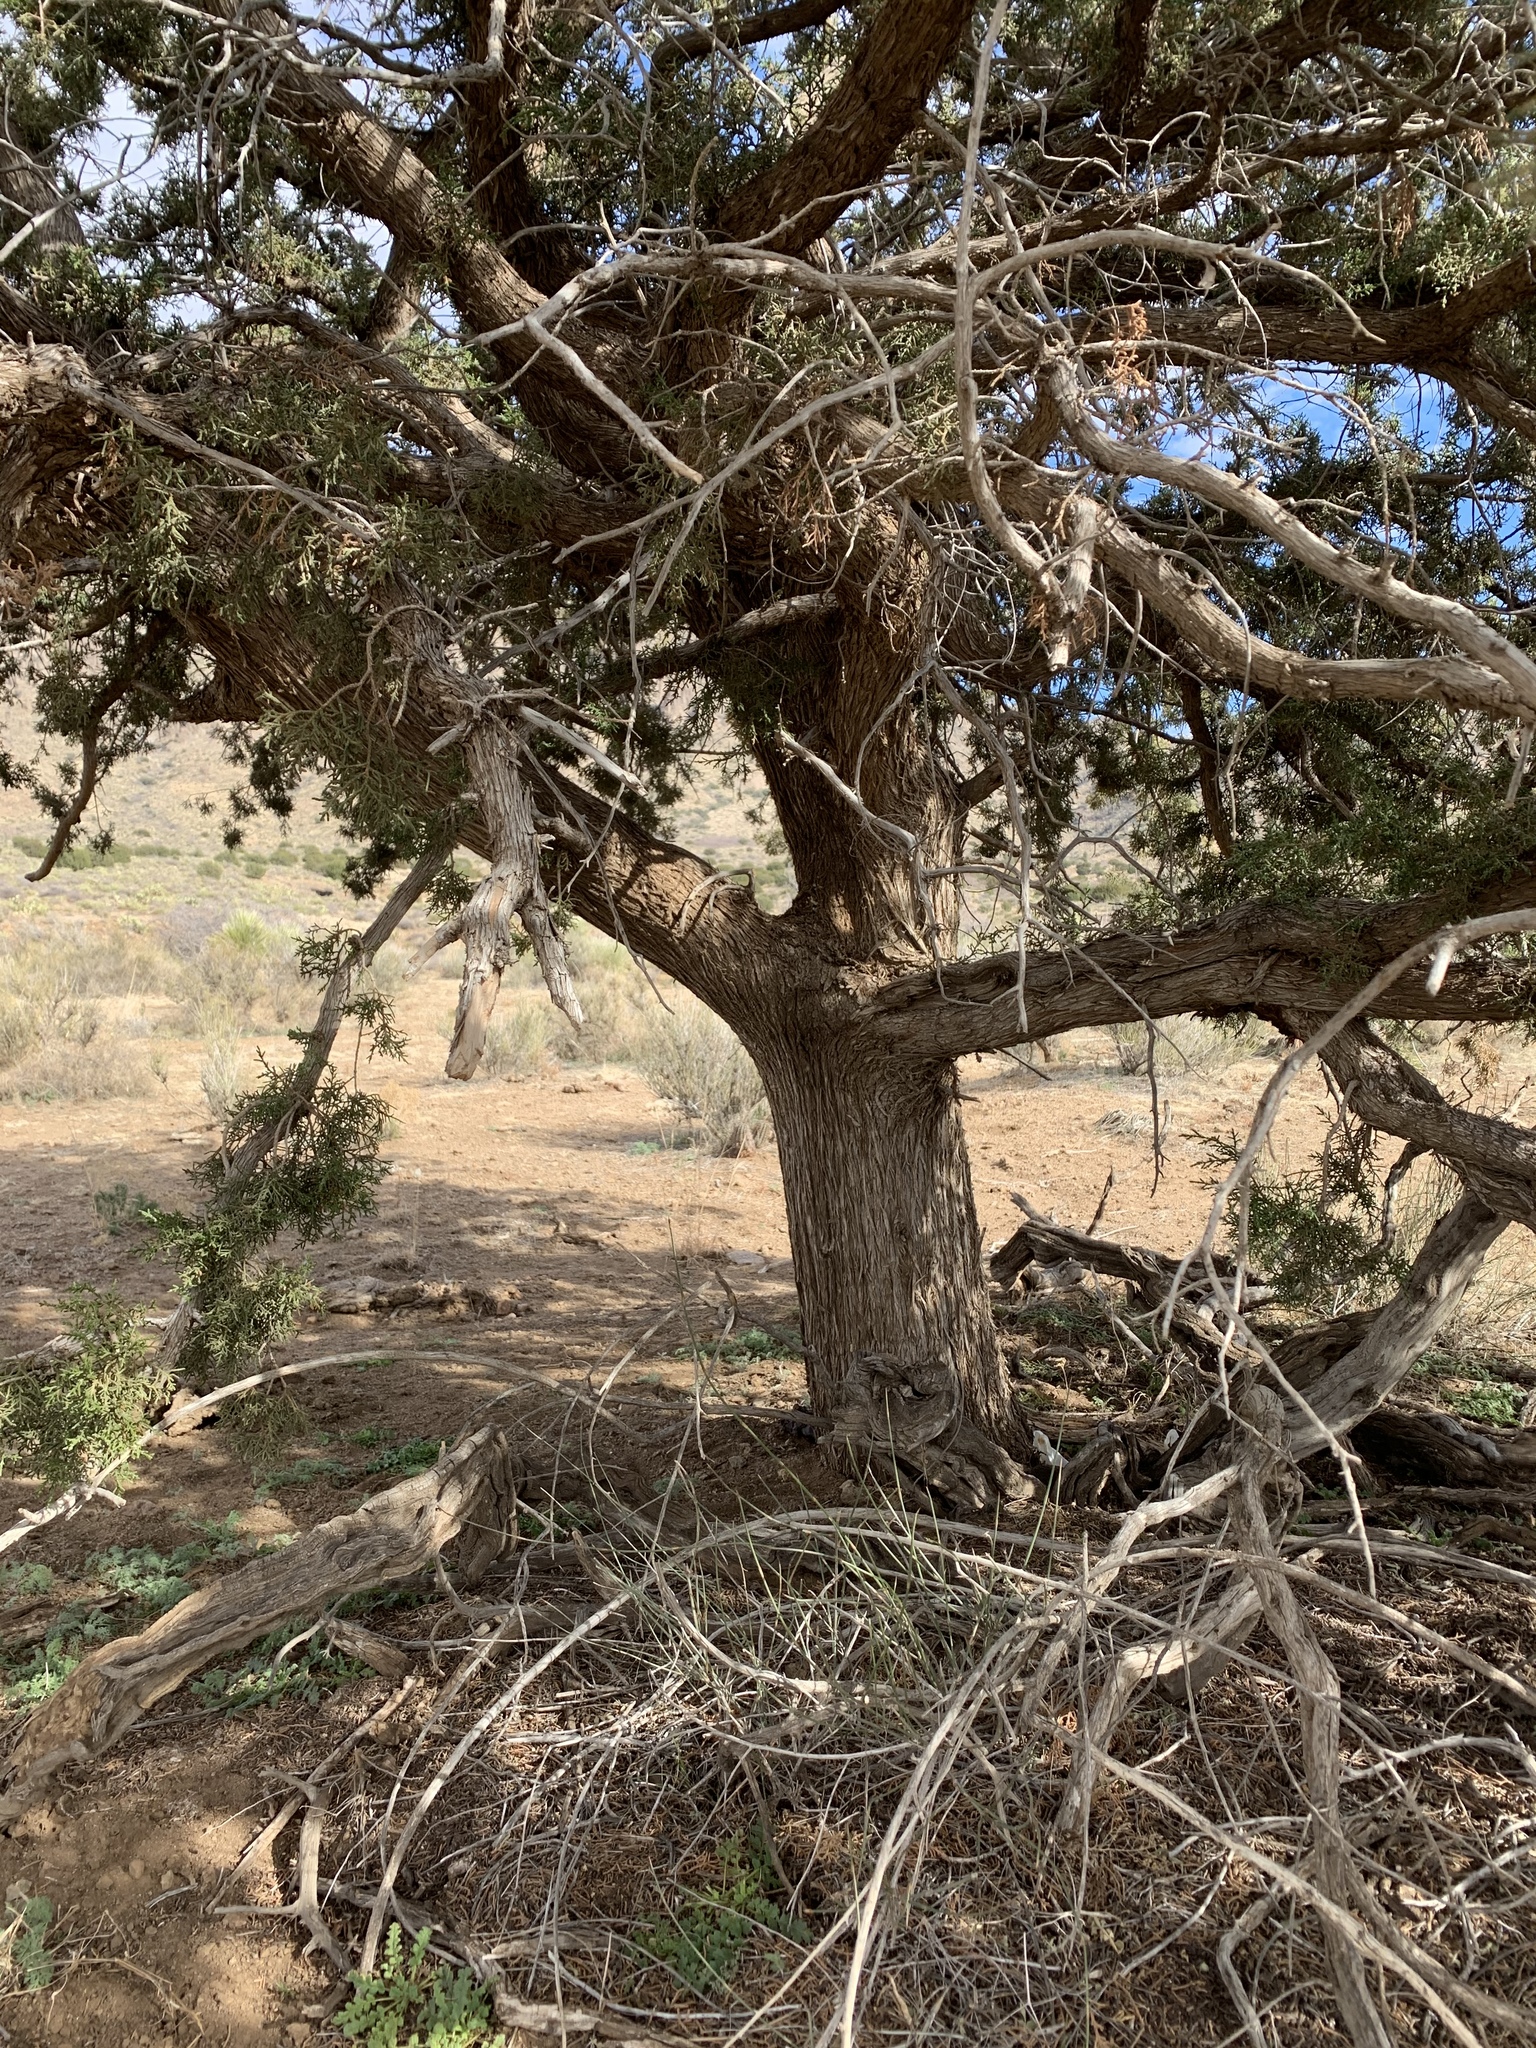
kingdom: Plantae
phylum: Tracheophyta
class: Pinopsida
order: Pinales
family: Cupressaceae
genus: Juniperus
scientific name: Juniperus arizonica
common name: Arizona juniper
